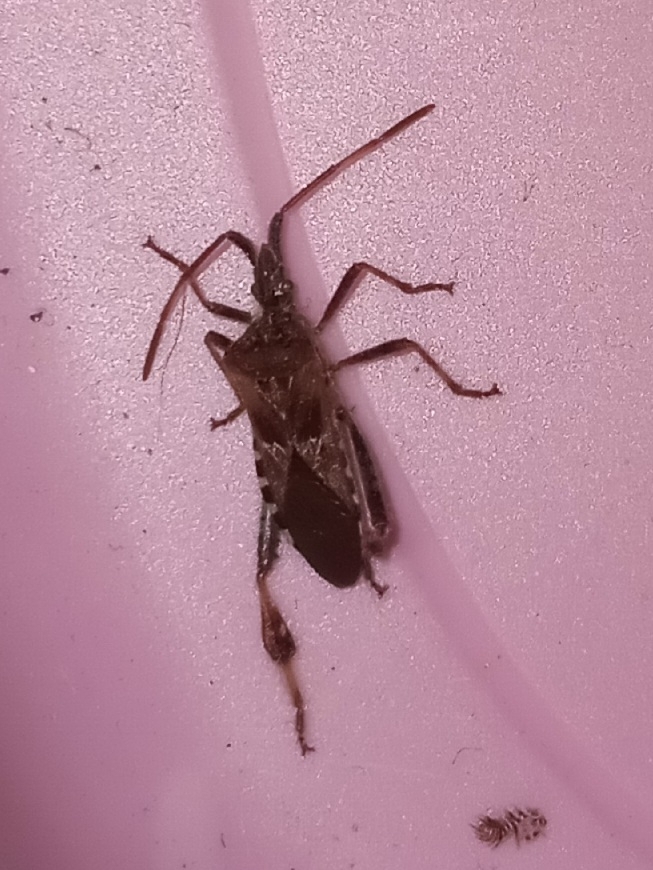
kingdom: Animalia
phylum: Arthropoda
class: Insecta
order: Hemiptera
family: Coreidae
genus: Leptoglossus
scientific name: Leptoglossus occidentalis
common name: Western conifer-seed bug
